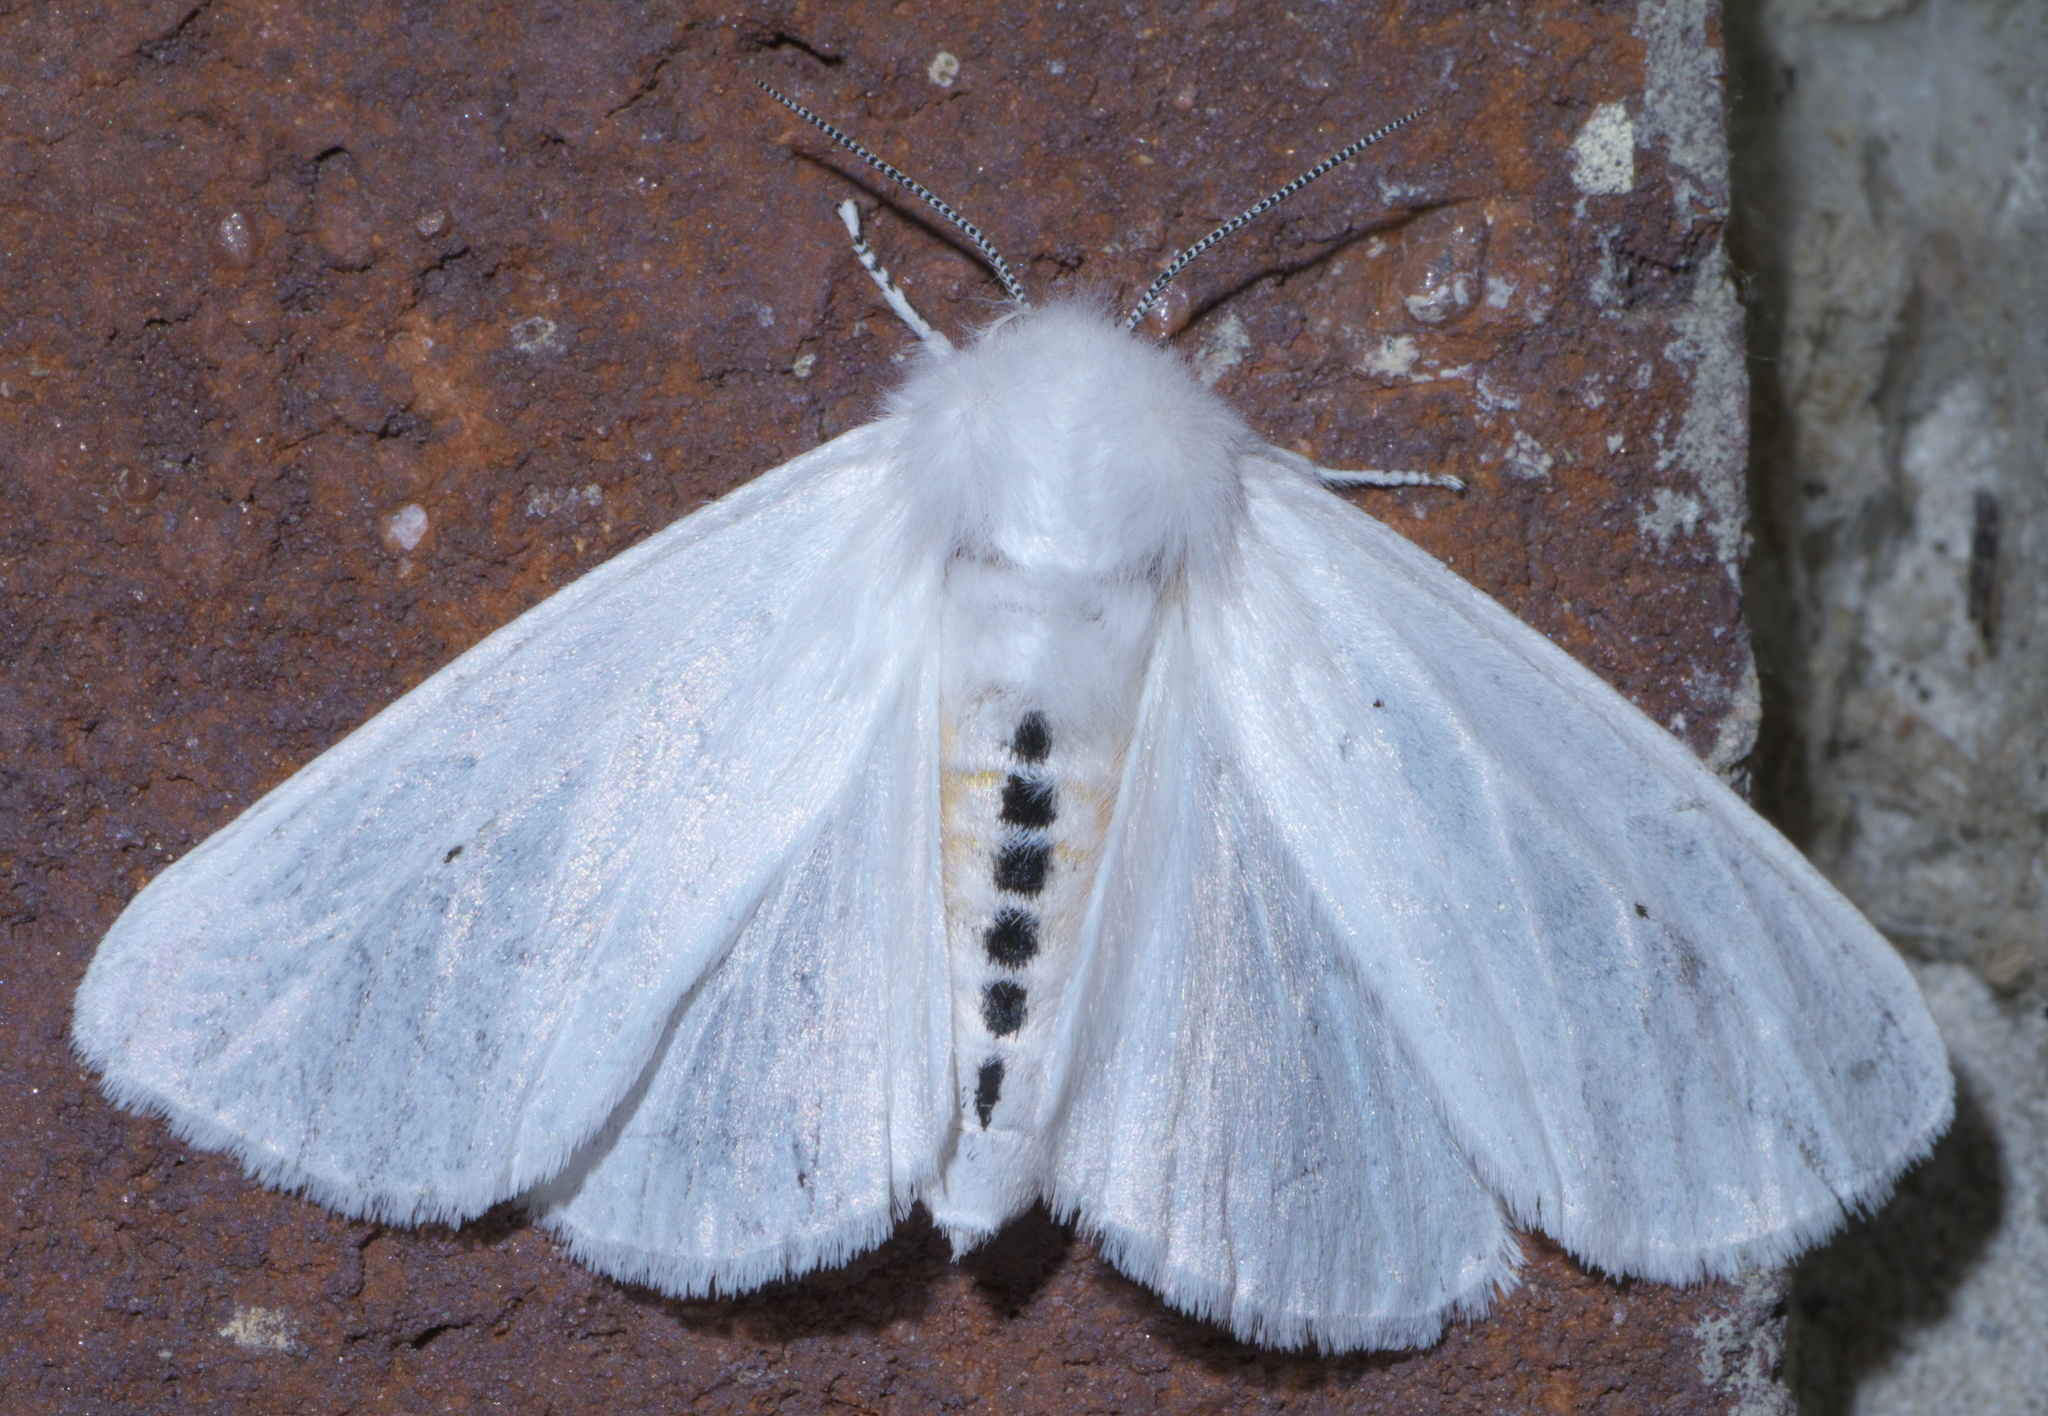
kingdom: Animalia
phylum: Arthropoda
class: Insecta
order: Lepidoptera
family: Erebidae
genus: Spilosoma
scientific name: Spilosoma virginica
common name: Virginia tiger moth
